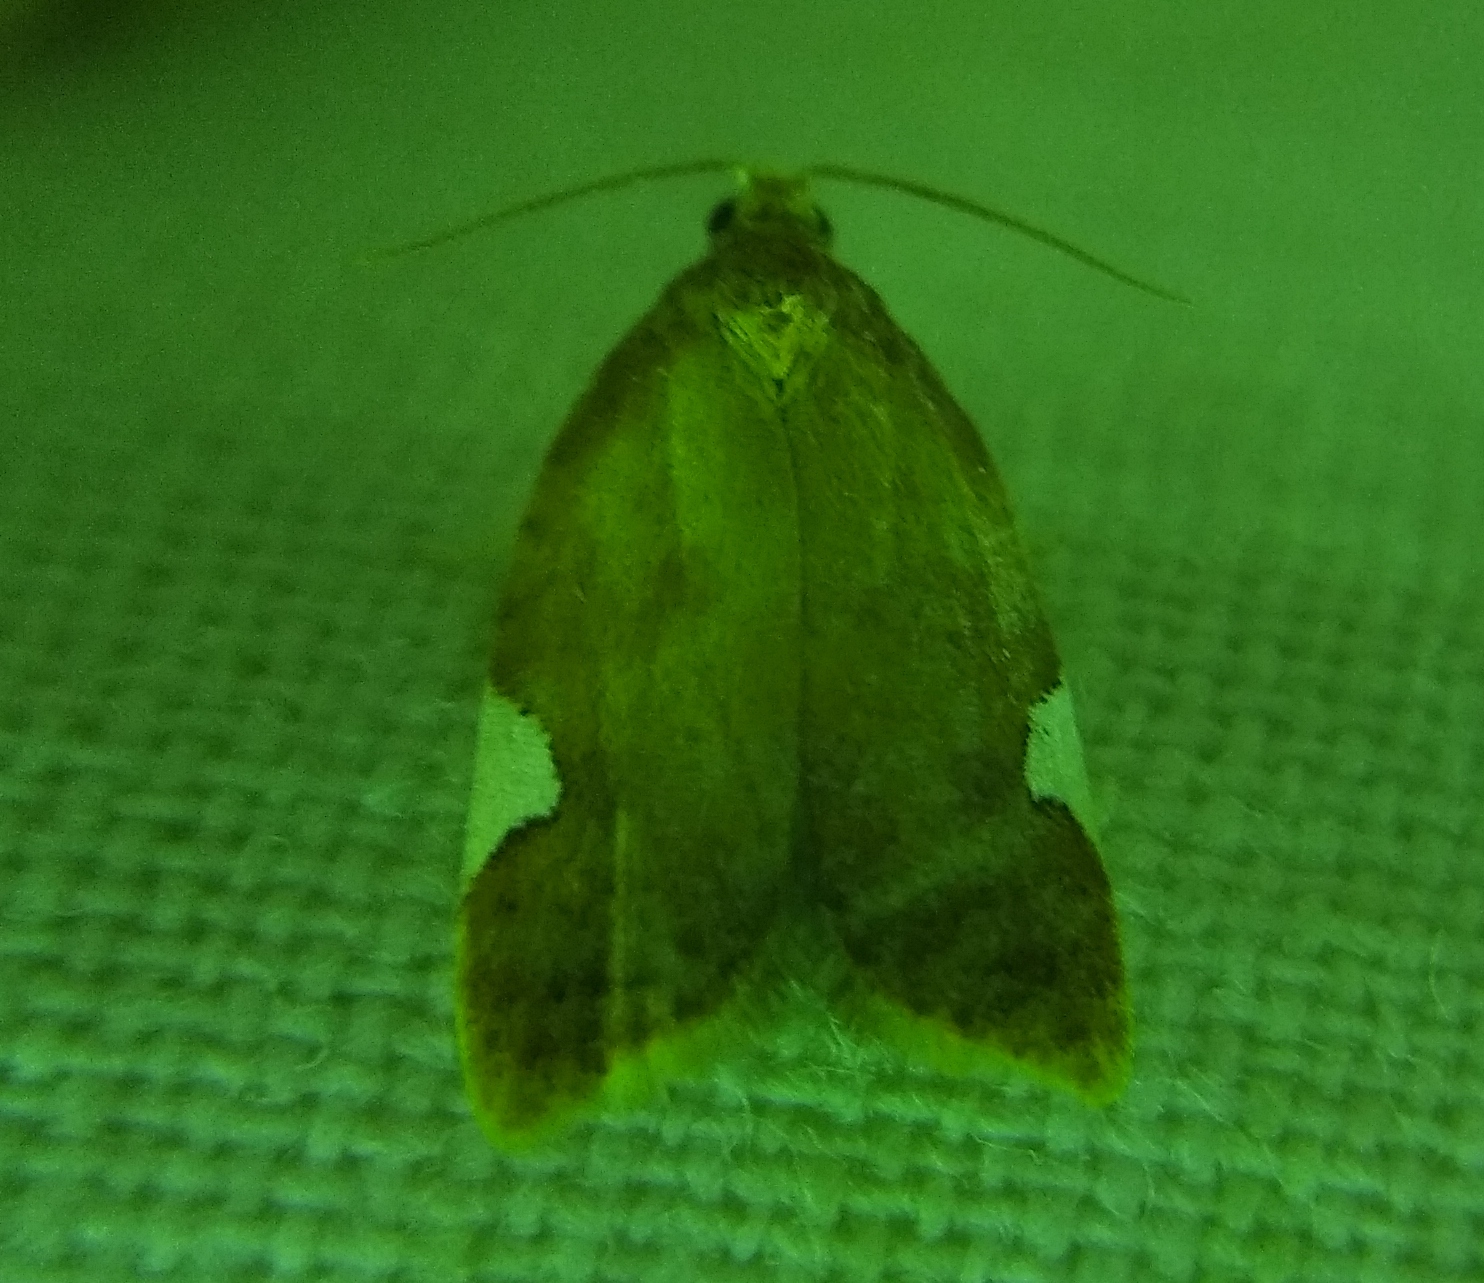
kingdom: Animalia
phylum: Arthropoda
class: Insecta
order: Lepidoptera
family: Tortricidae
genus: Acleris
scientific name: Acleris holmiana
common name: Golden leafroller moth
